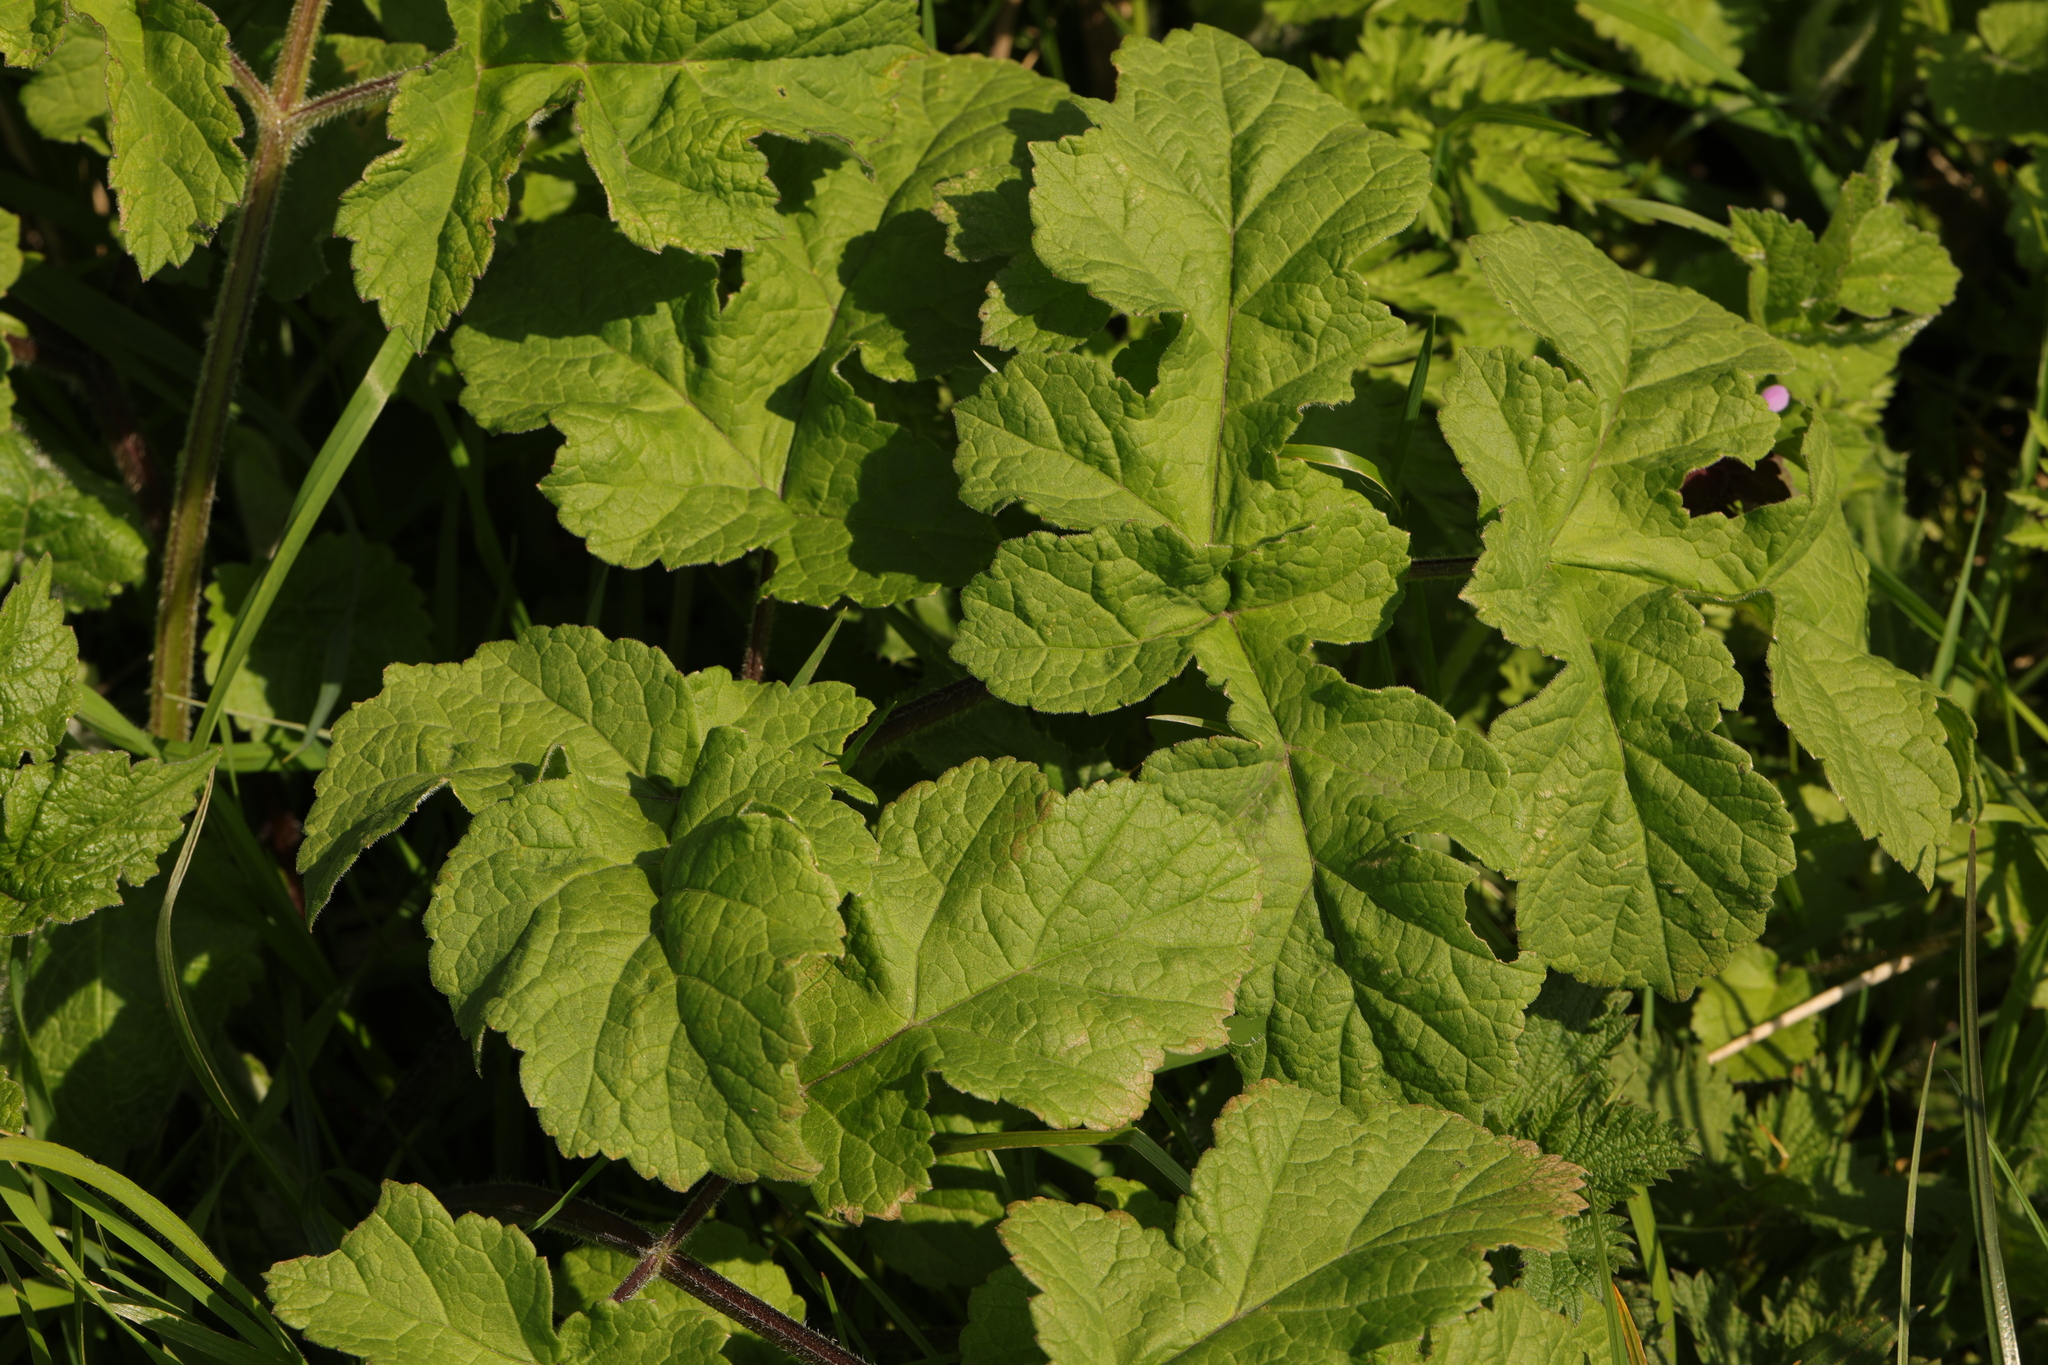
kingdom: Plantae
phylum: Tracheophyta
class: Magnoliopsida
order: Apiales
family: Apiaceae
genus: Heracleum
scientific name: Heracleum sphondylium
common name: Hogweed
